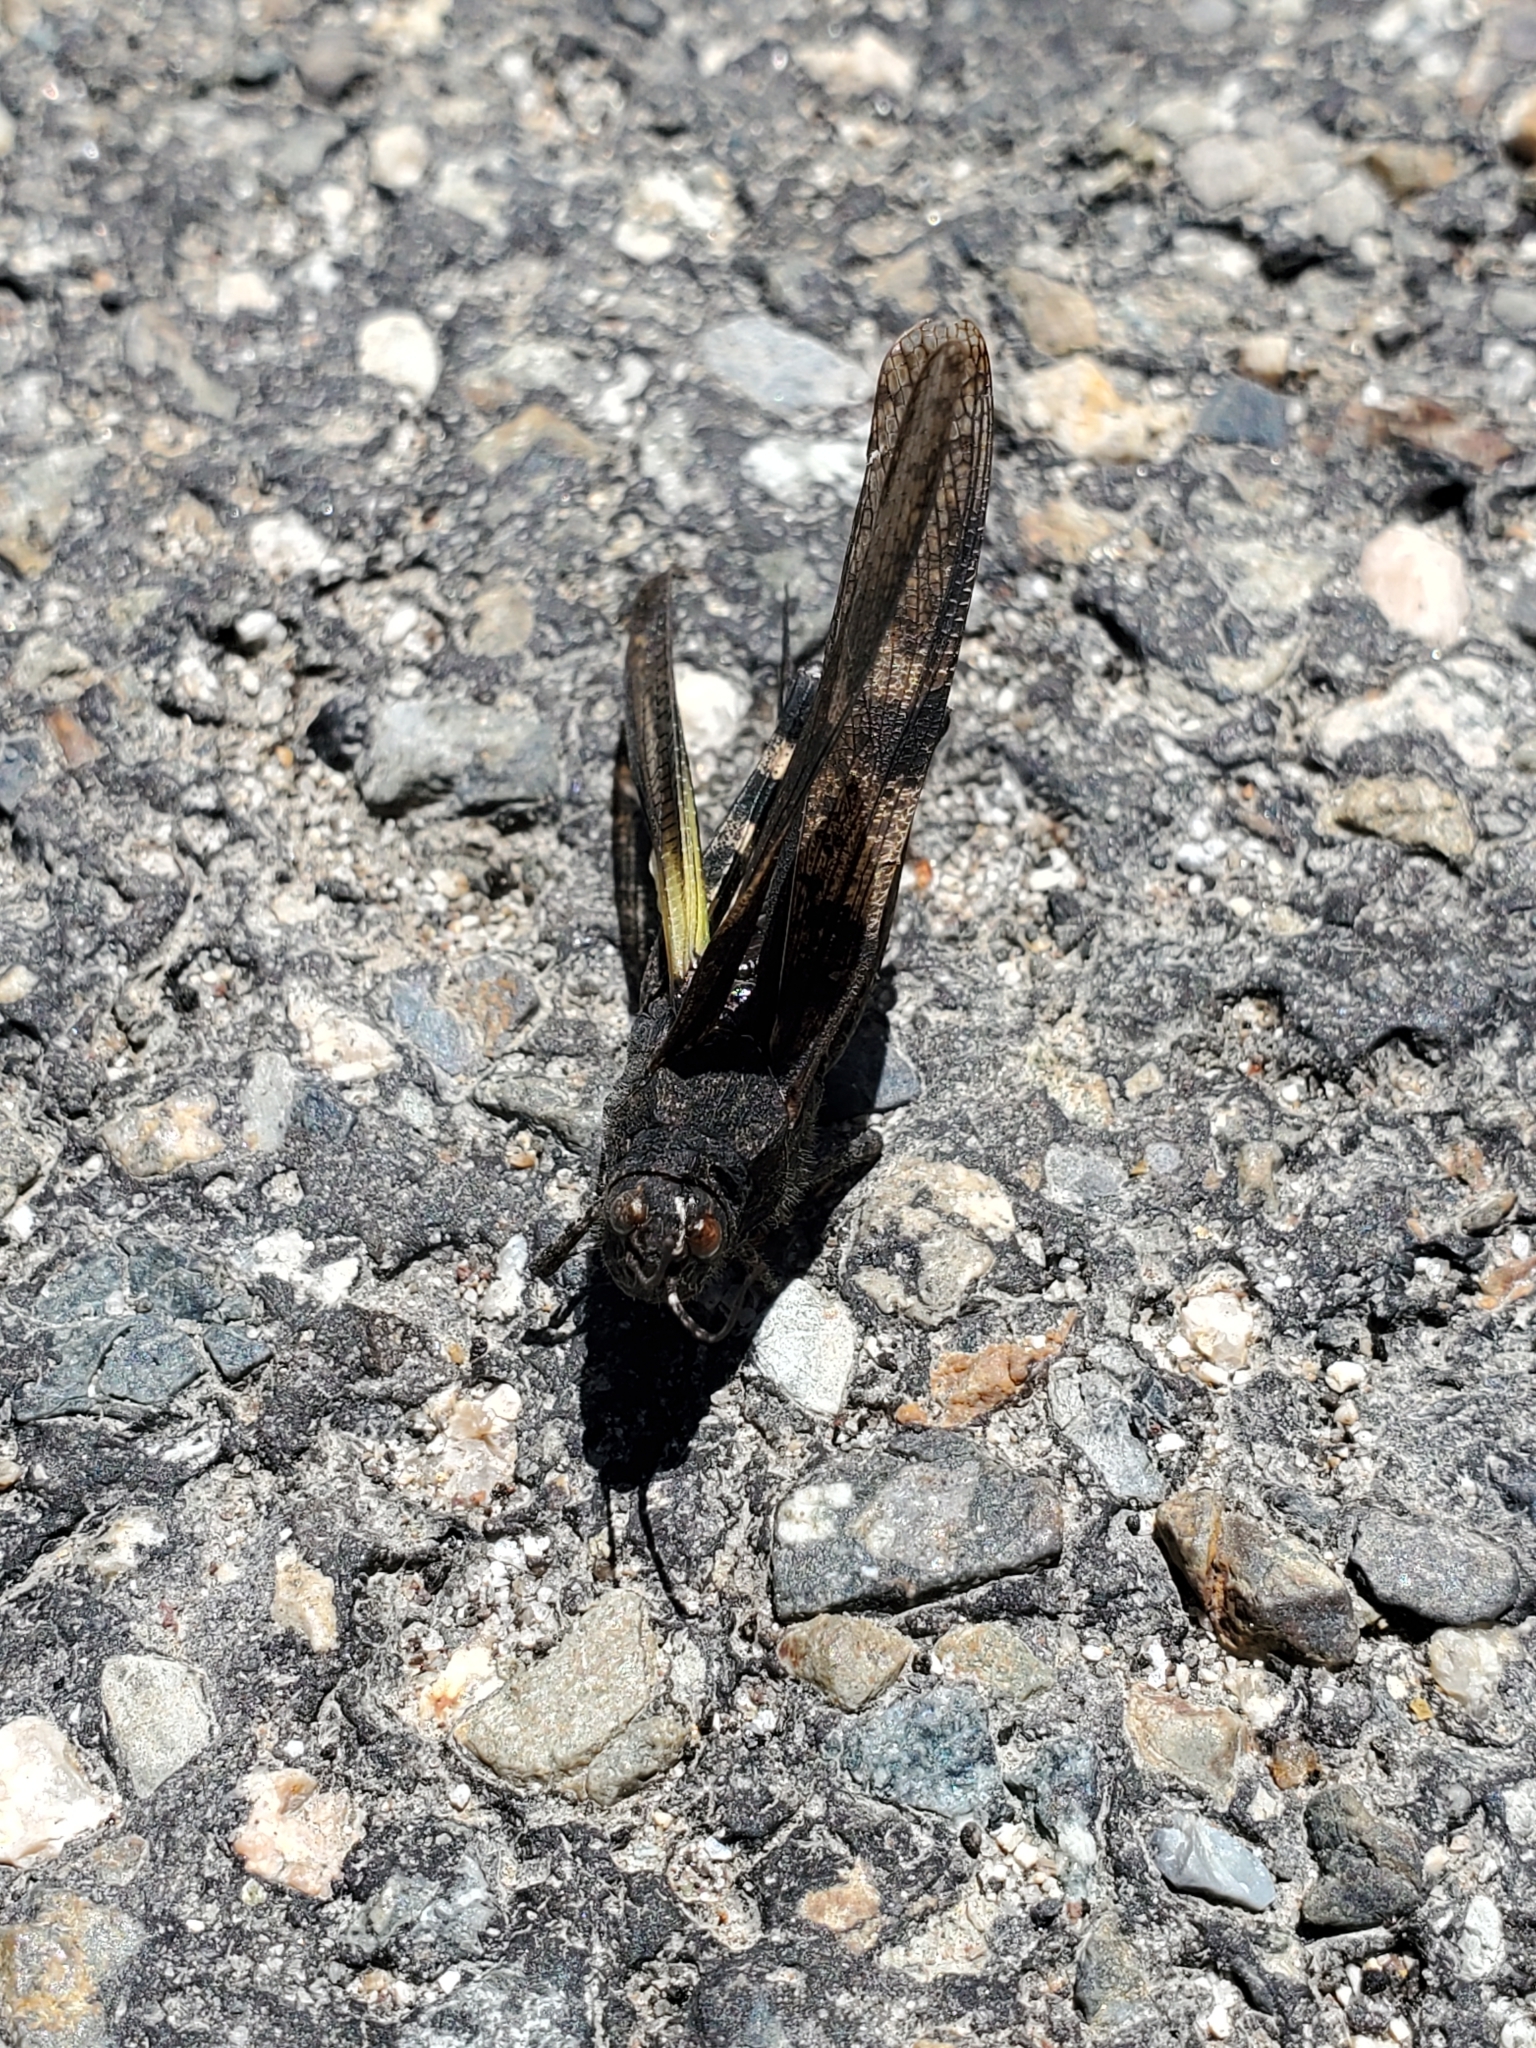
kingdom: Animalia
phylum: Arthropoda
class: Insecta
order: Orthoptera
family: Acrididae
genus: Trimerotropis
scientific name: Trimerotropis fontana
